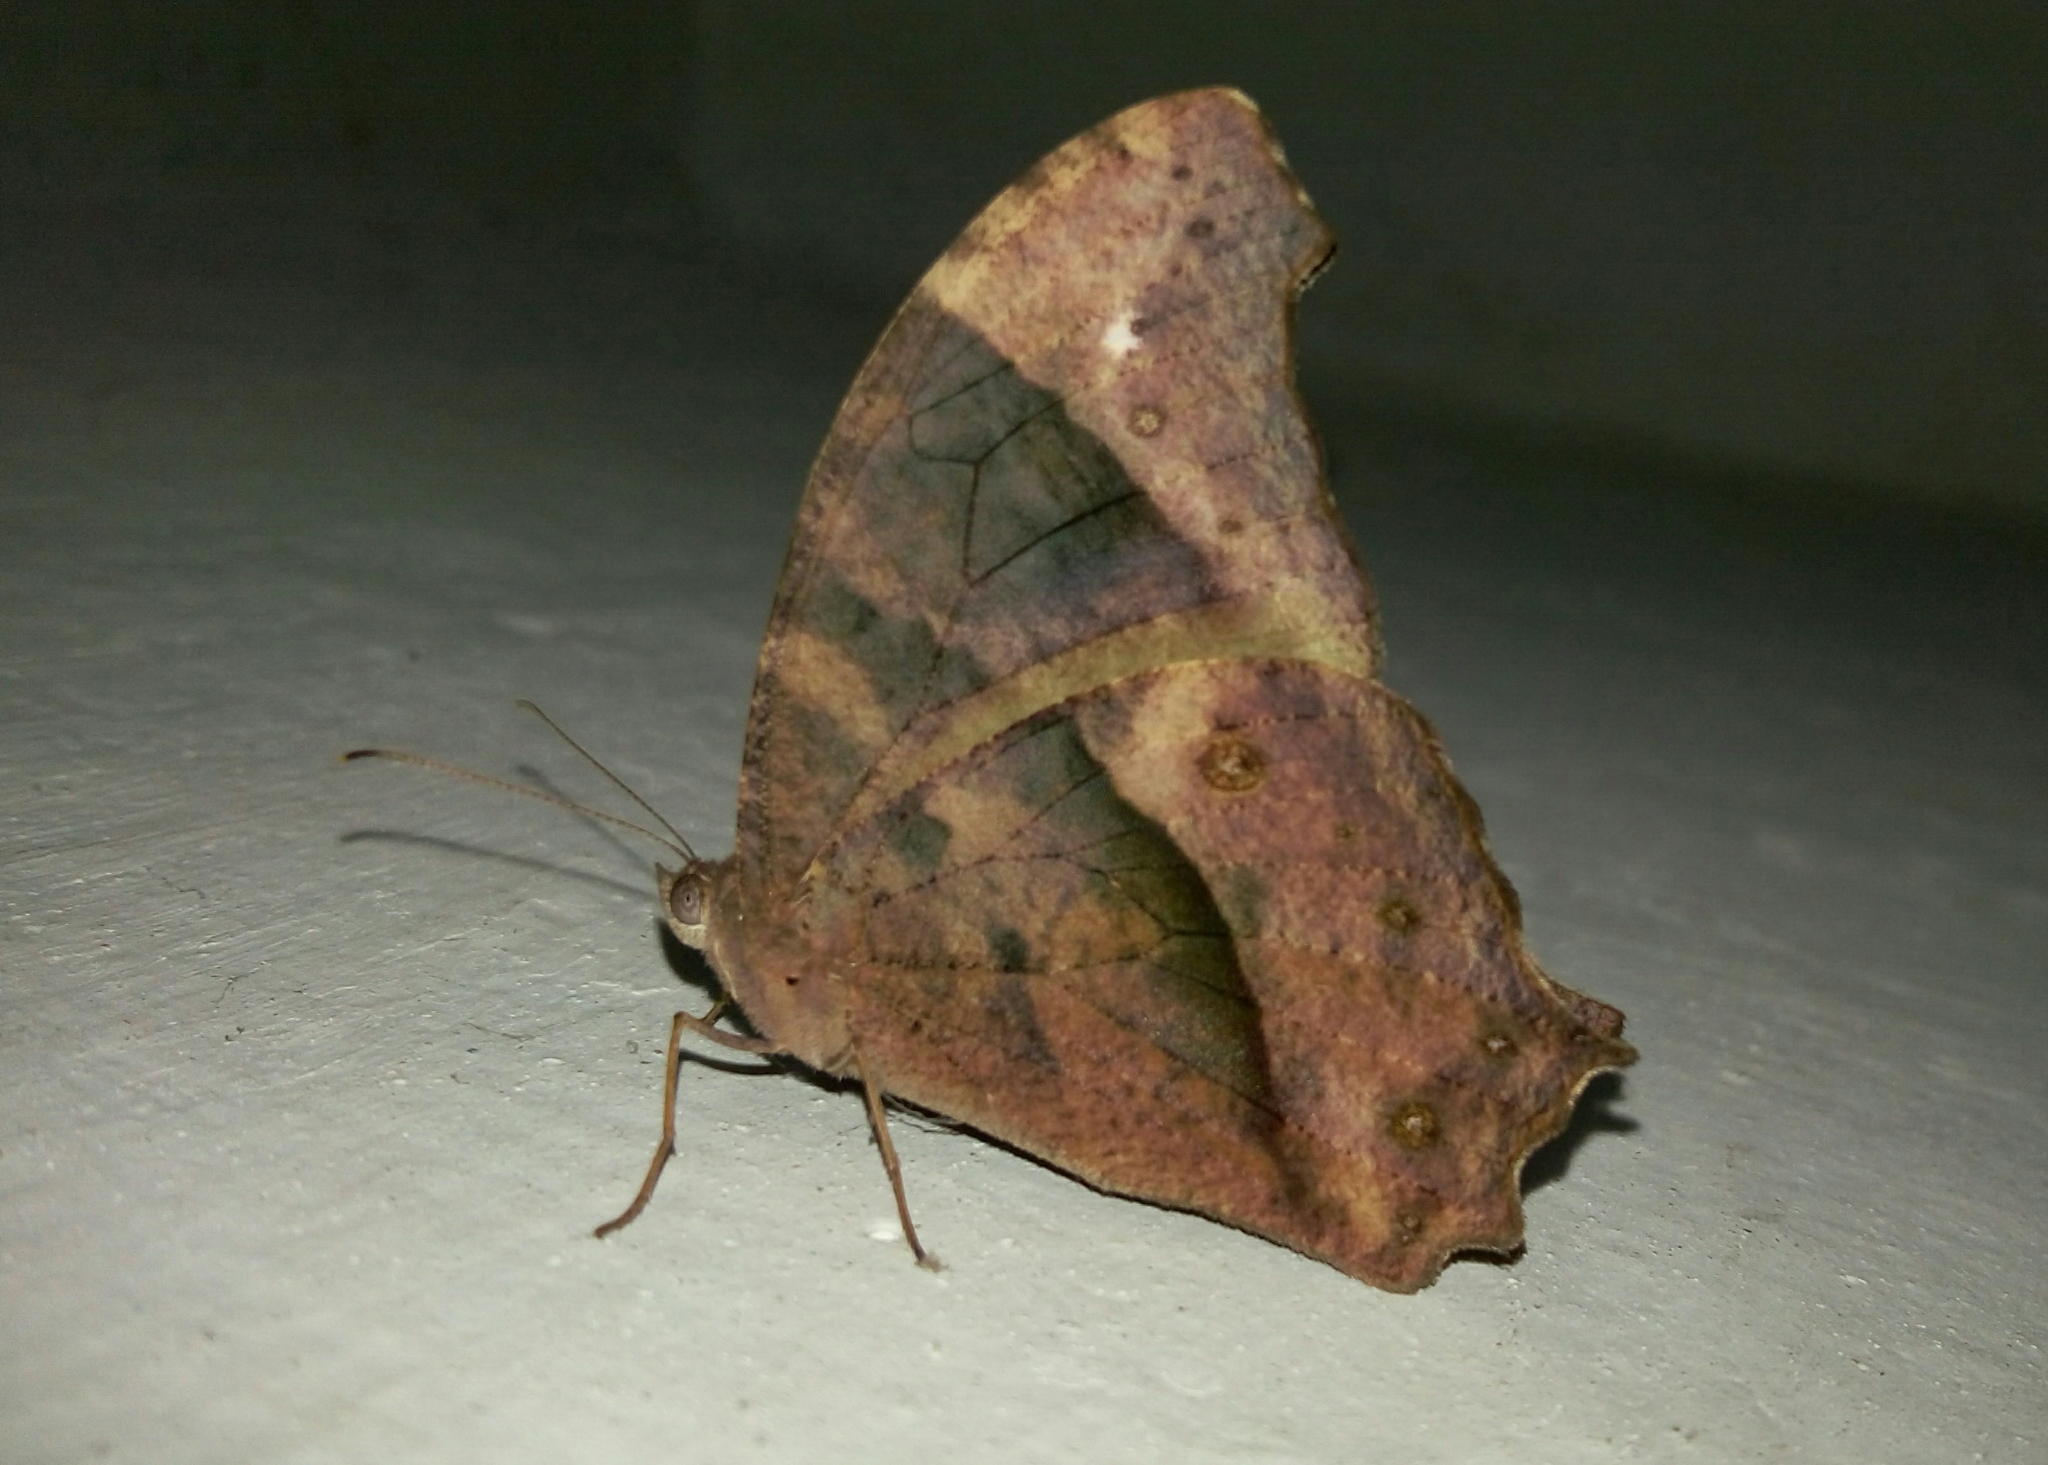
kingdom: Animalia
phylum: Arthropoda
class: Insecta
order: Lepidoptera
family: Nymphalidae
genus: Melanitis
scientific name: Melanitis leda
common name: Twilight brown
